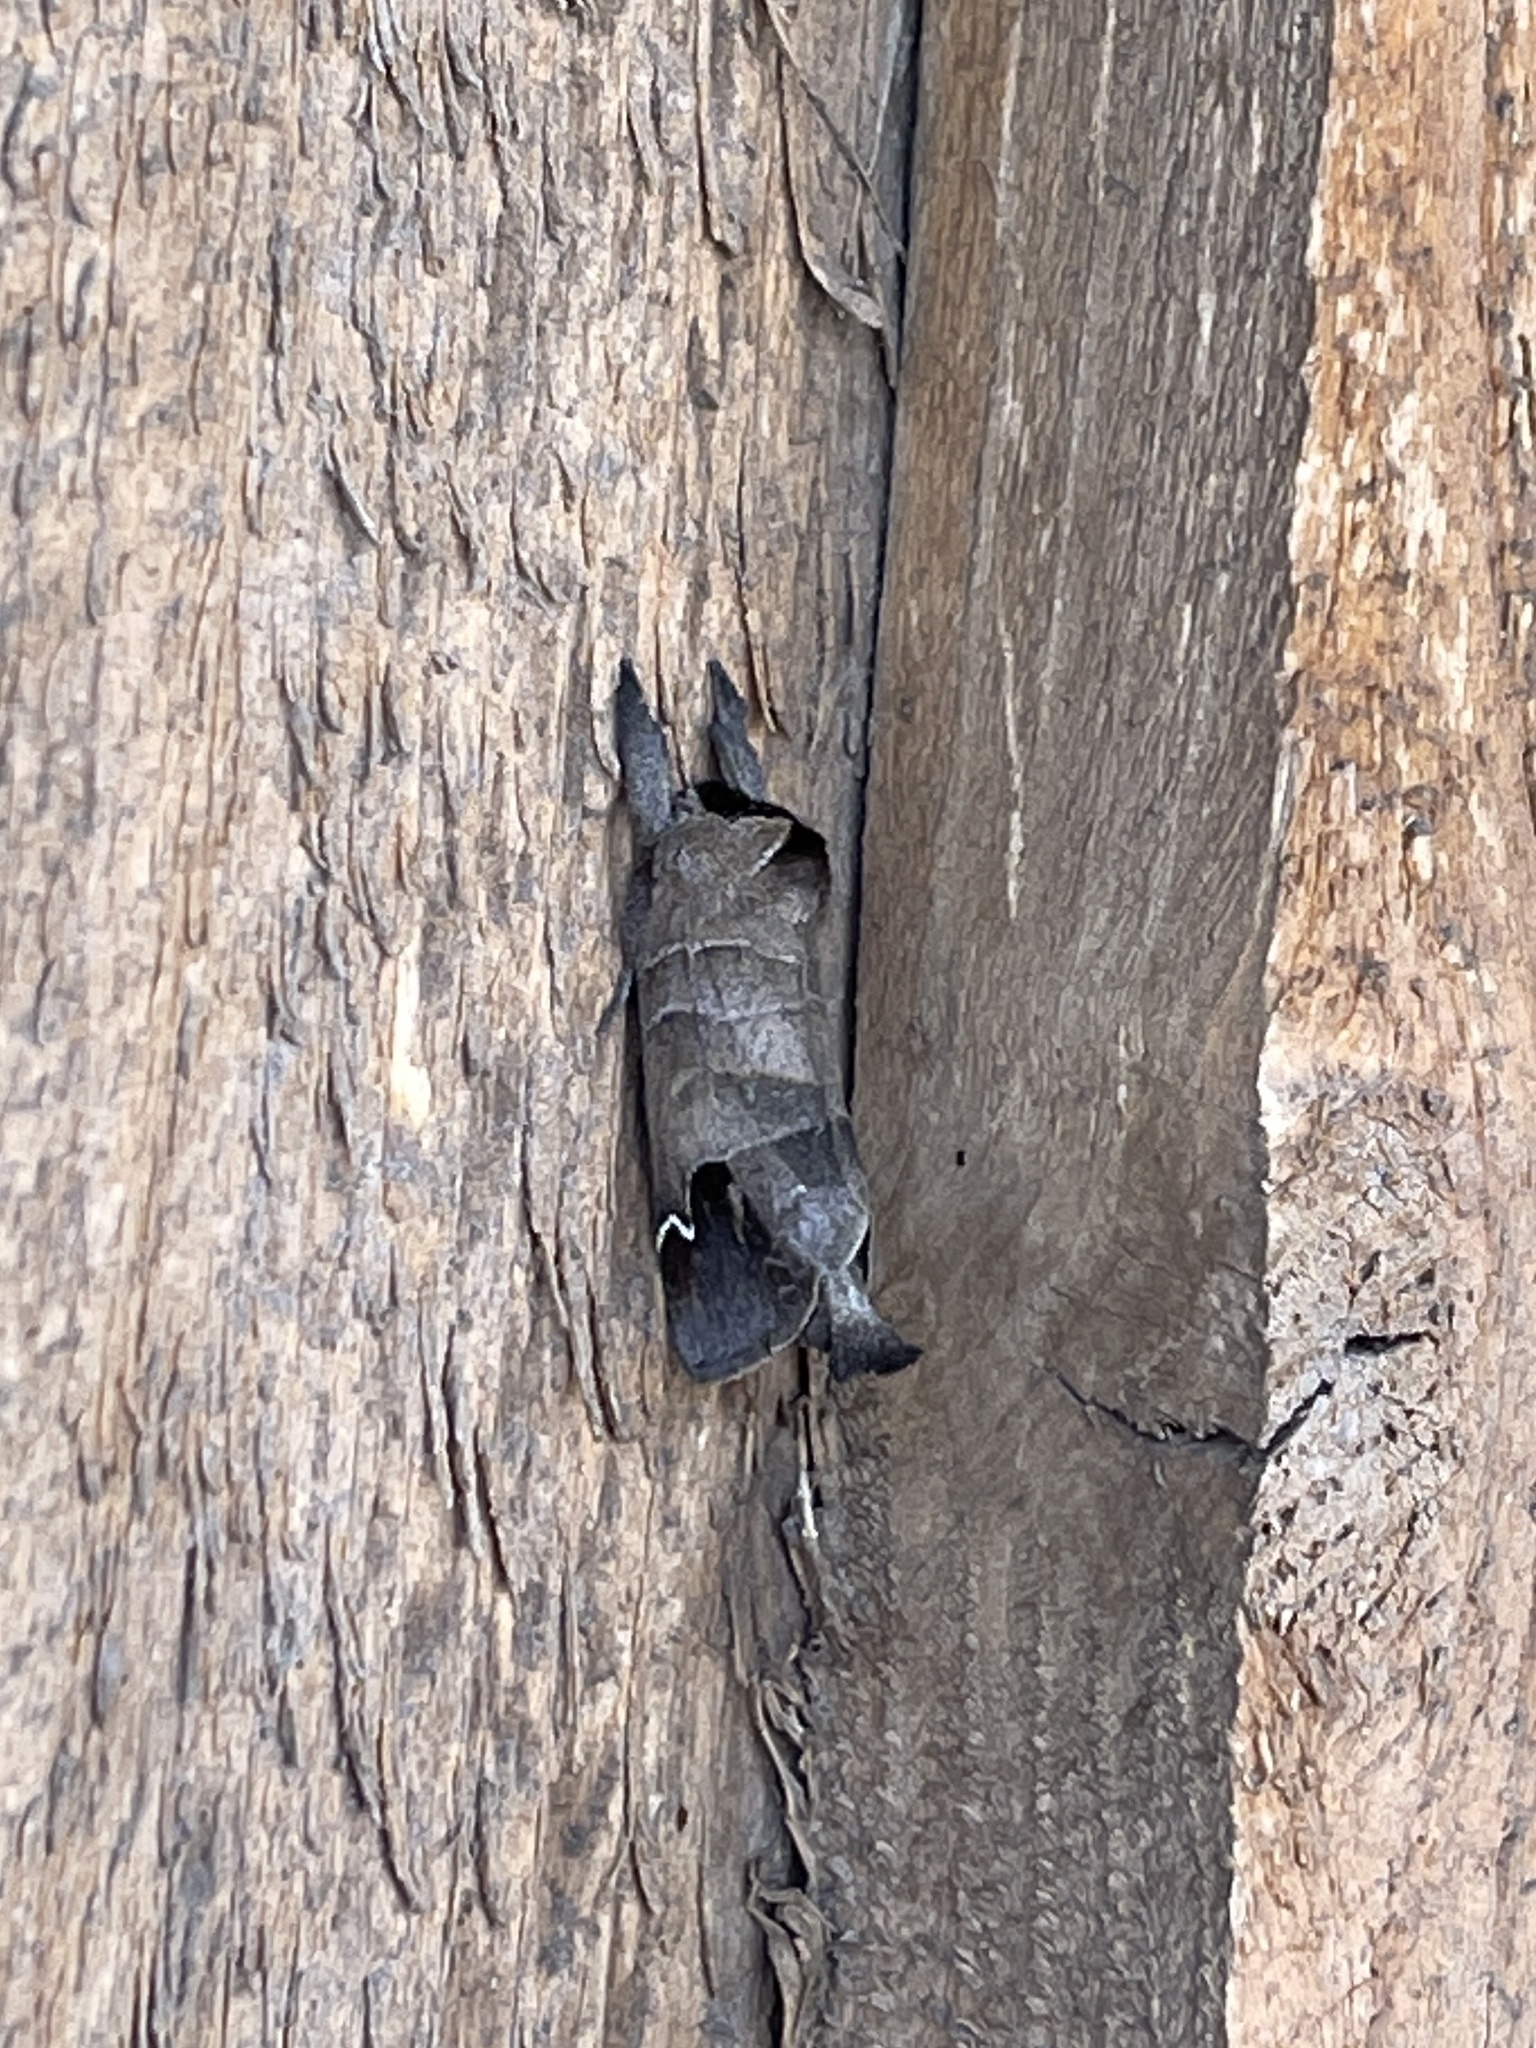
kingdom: Animalia
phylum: Arthropoda
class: Insecta
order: Lepidoptera
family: Notodontidae
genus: Clostera
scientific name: Clostera albosigma
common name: Sigmoid prominent
